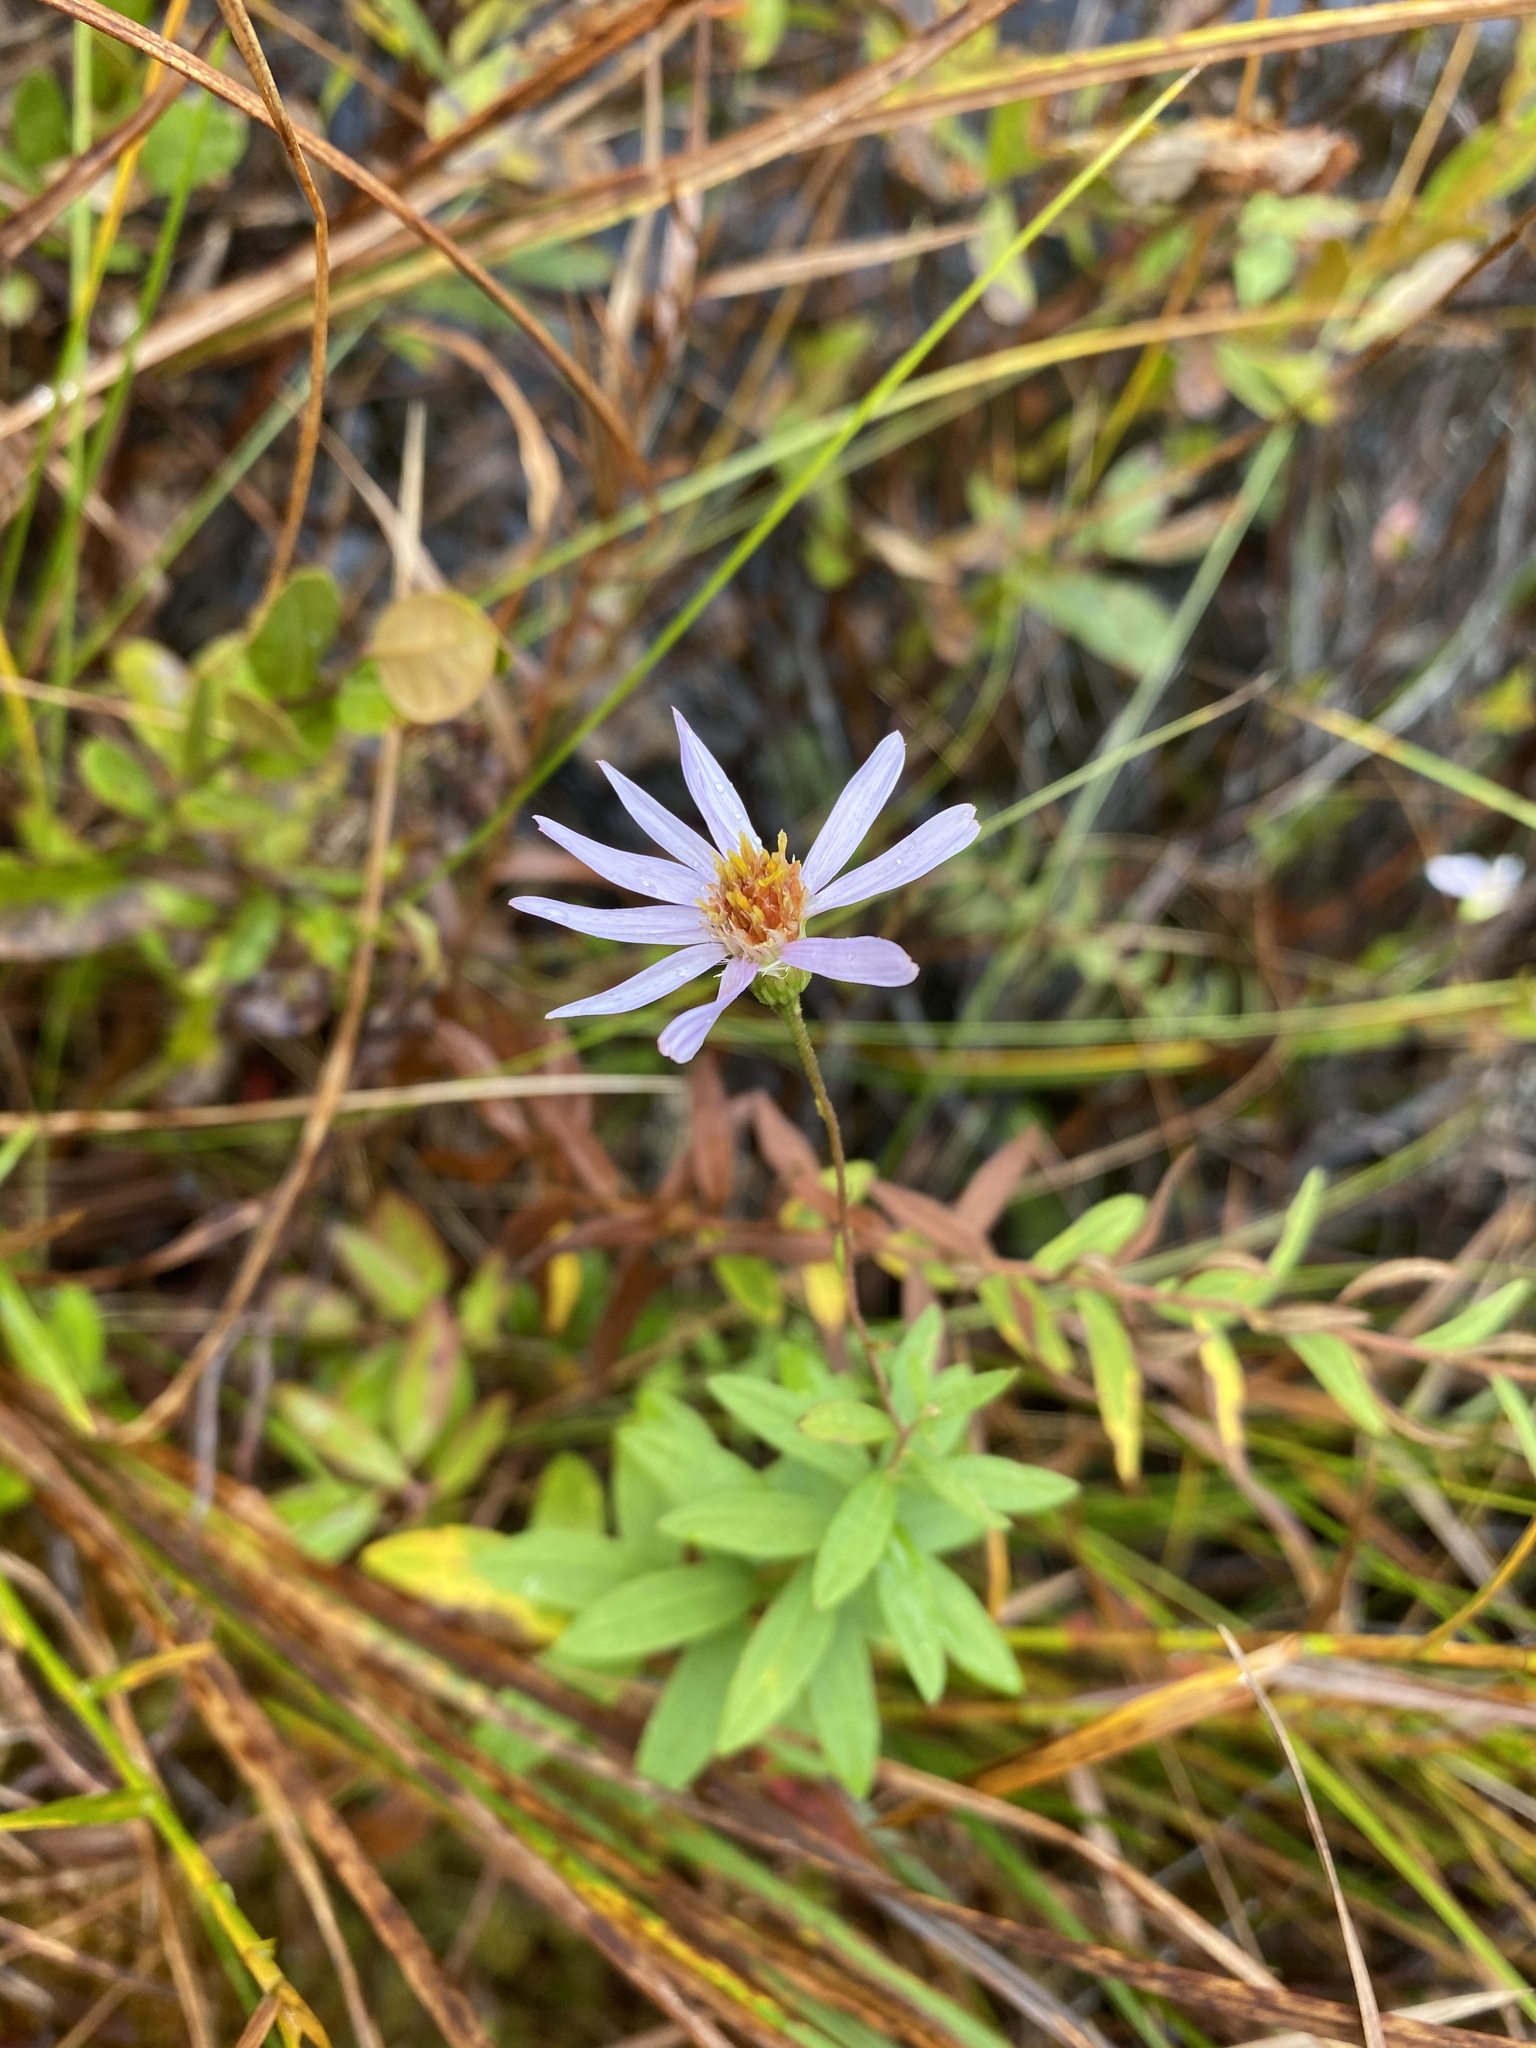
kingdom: Plantae
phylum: Tracheophyta
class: Magnoliopsida
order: Asterales
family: Asteraceae
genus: Oclemena
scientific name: Oclemena nemoralis
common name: Bog aster
